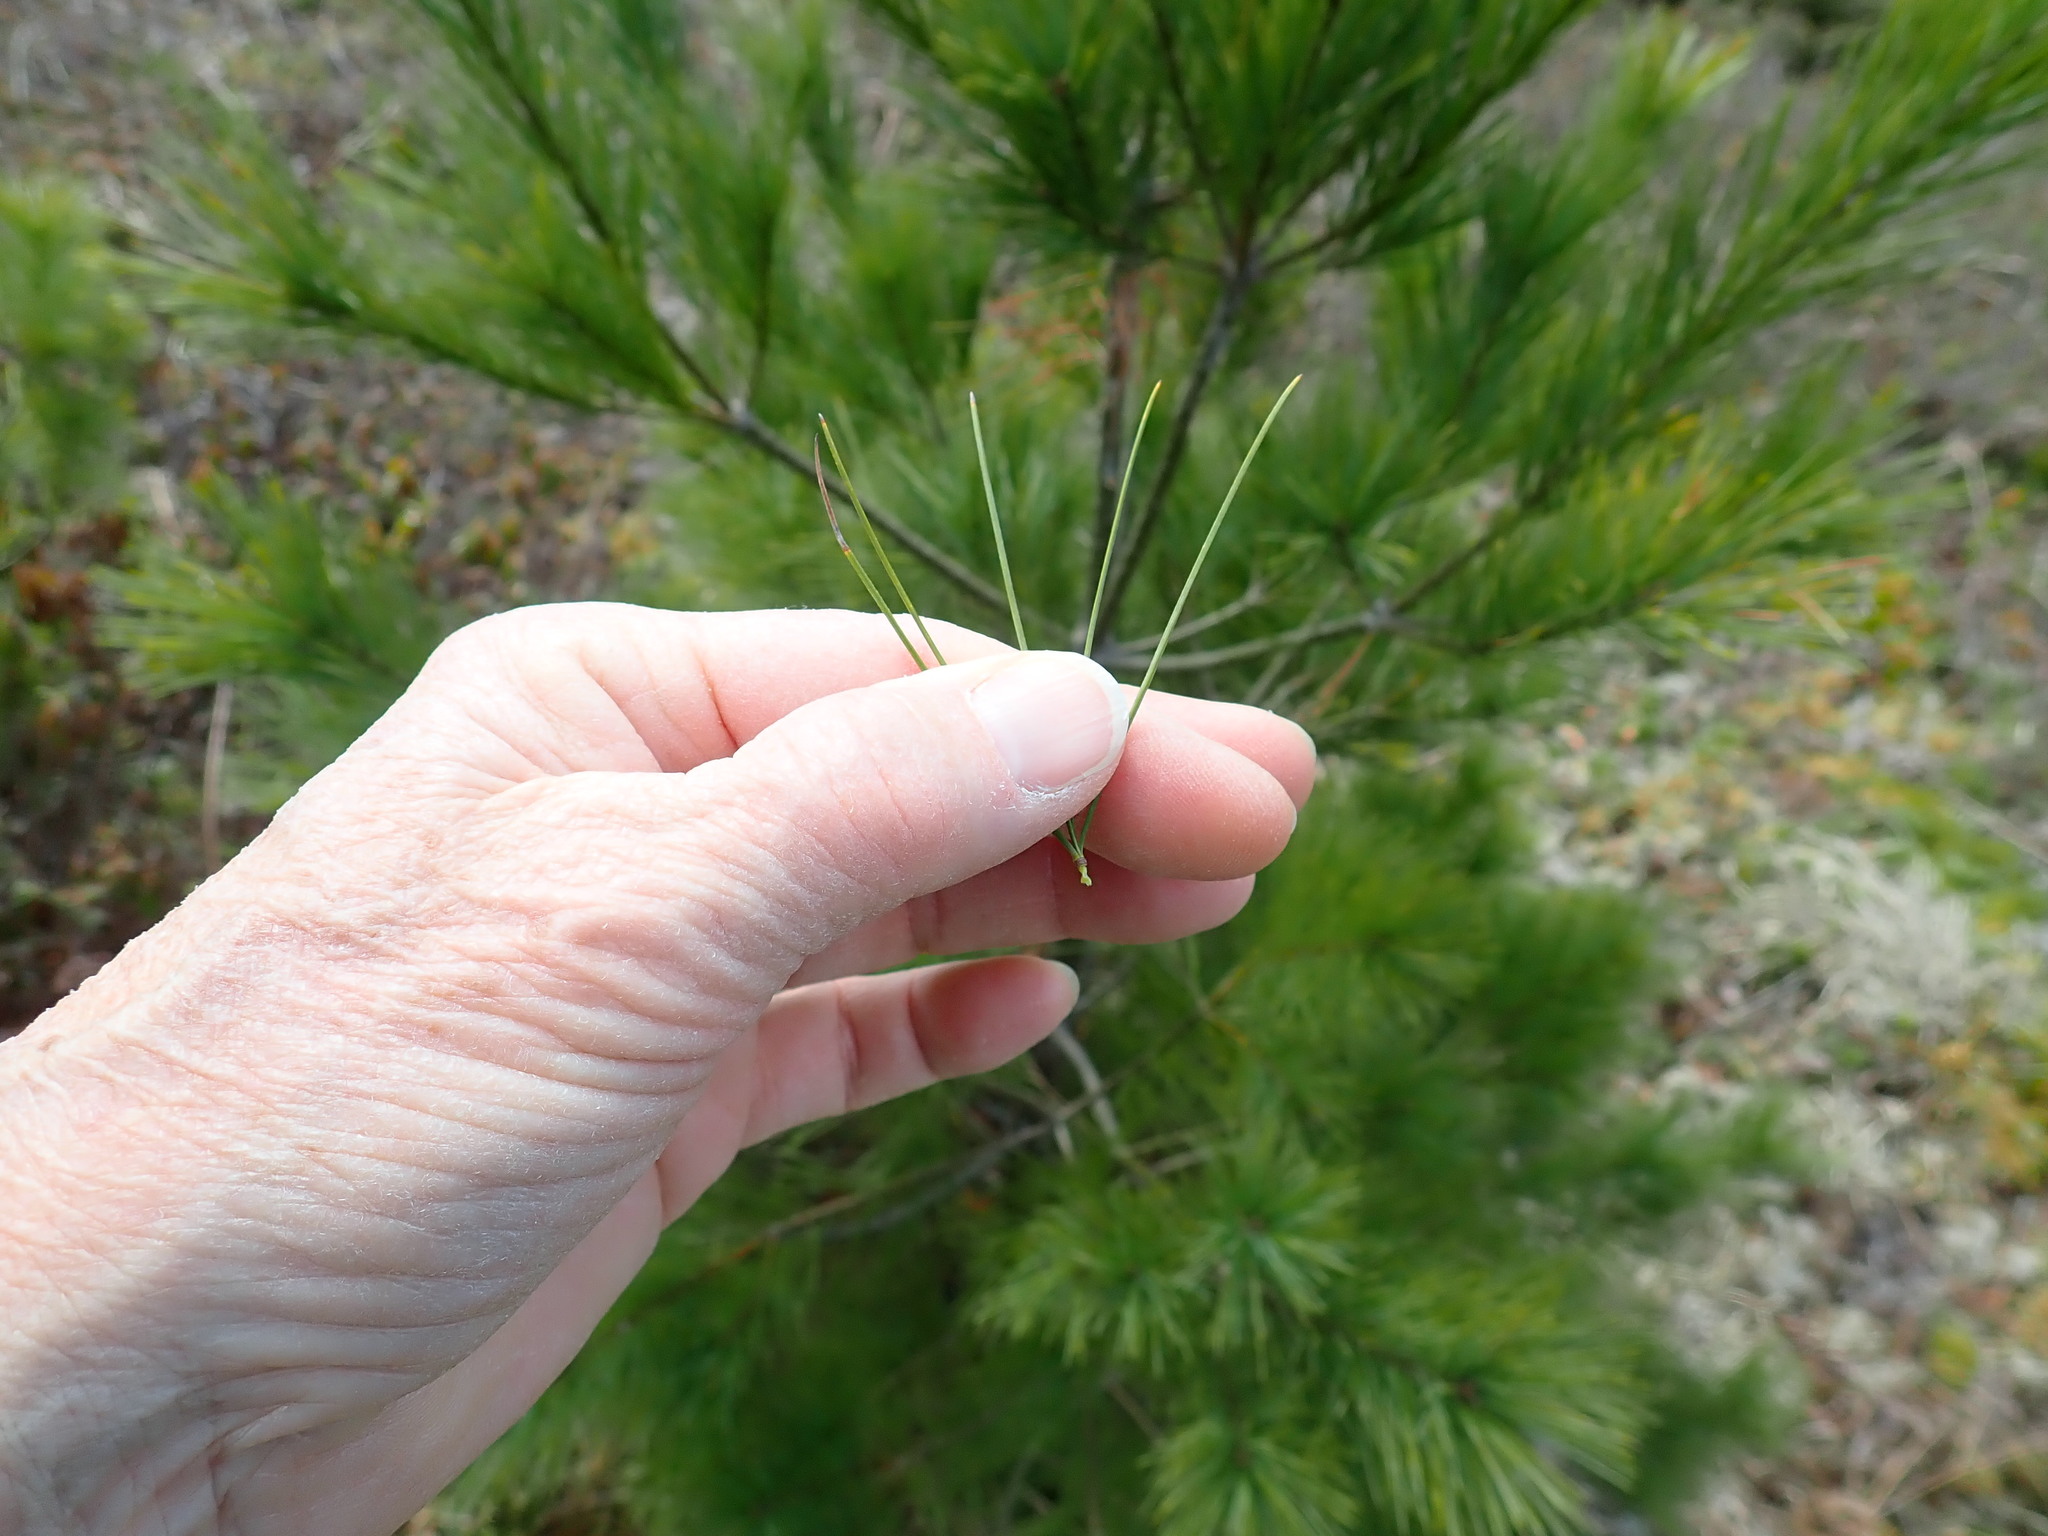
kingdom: Plantae
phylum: Tracheophyta
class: Pinopsida
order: Pinales
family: Pinaceae
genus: Pinus
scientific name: Pinus strobus
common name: Weymouth pine
